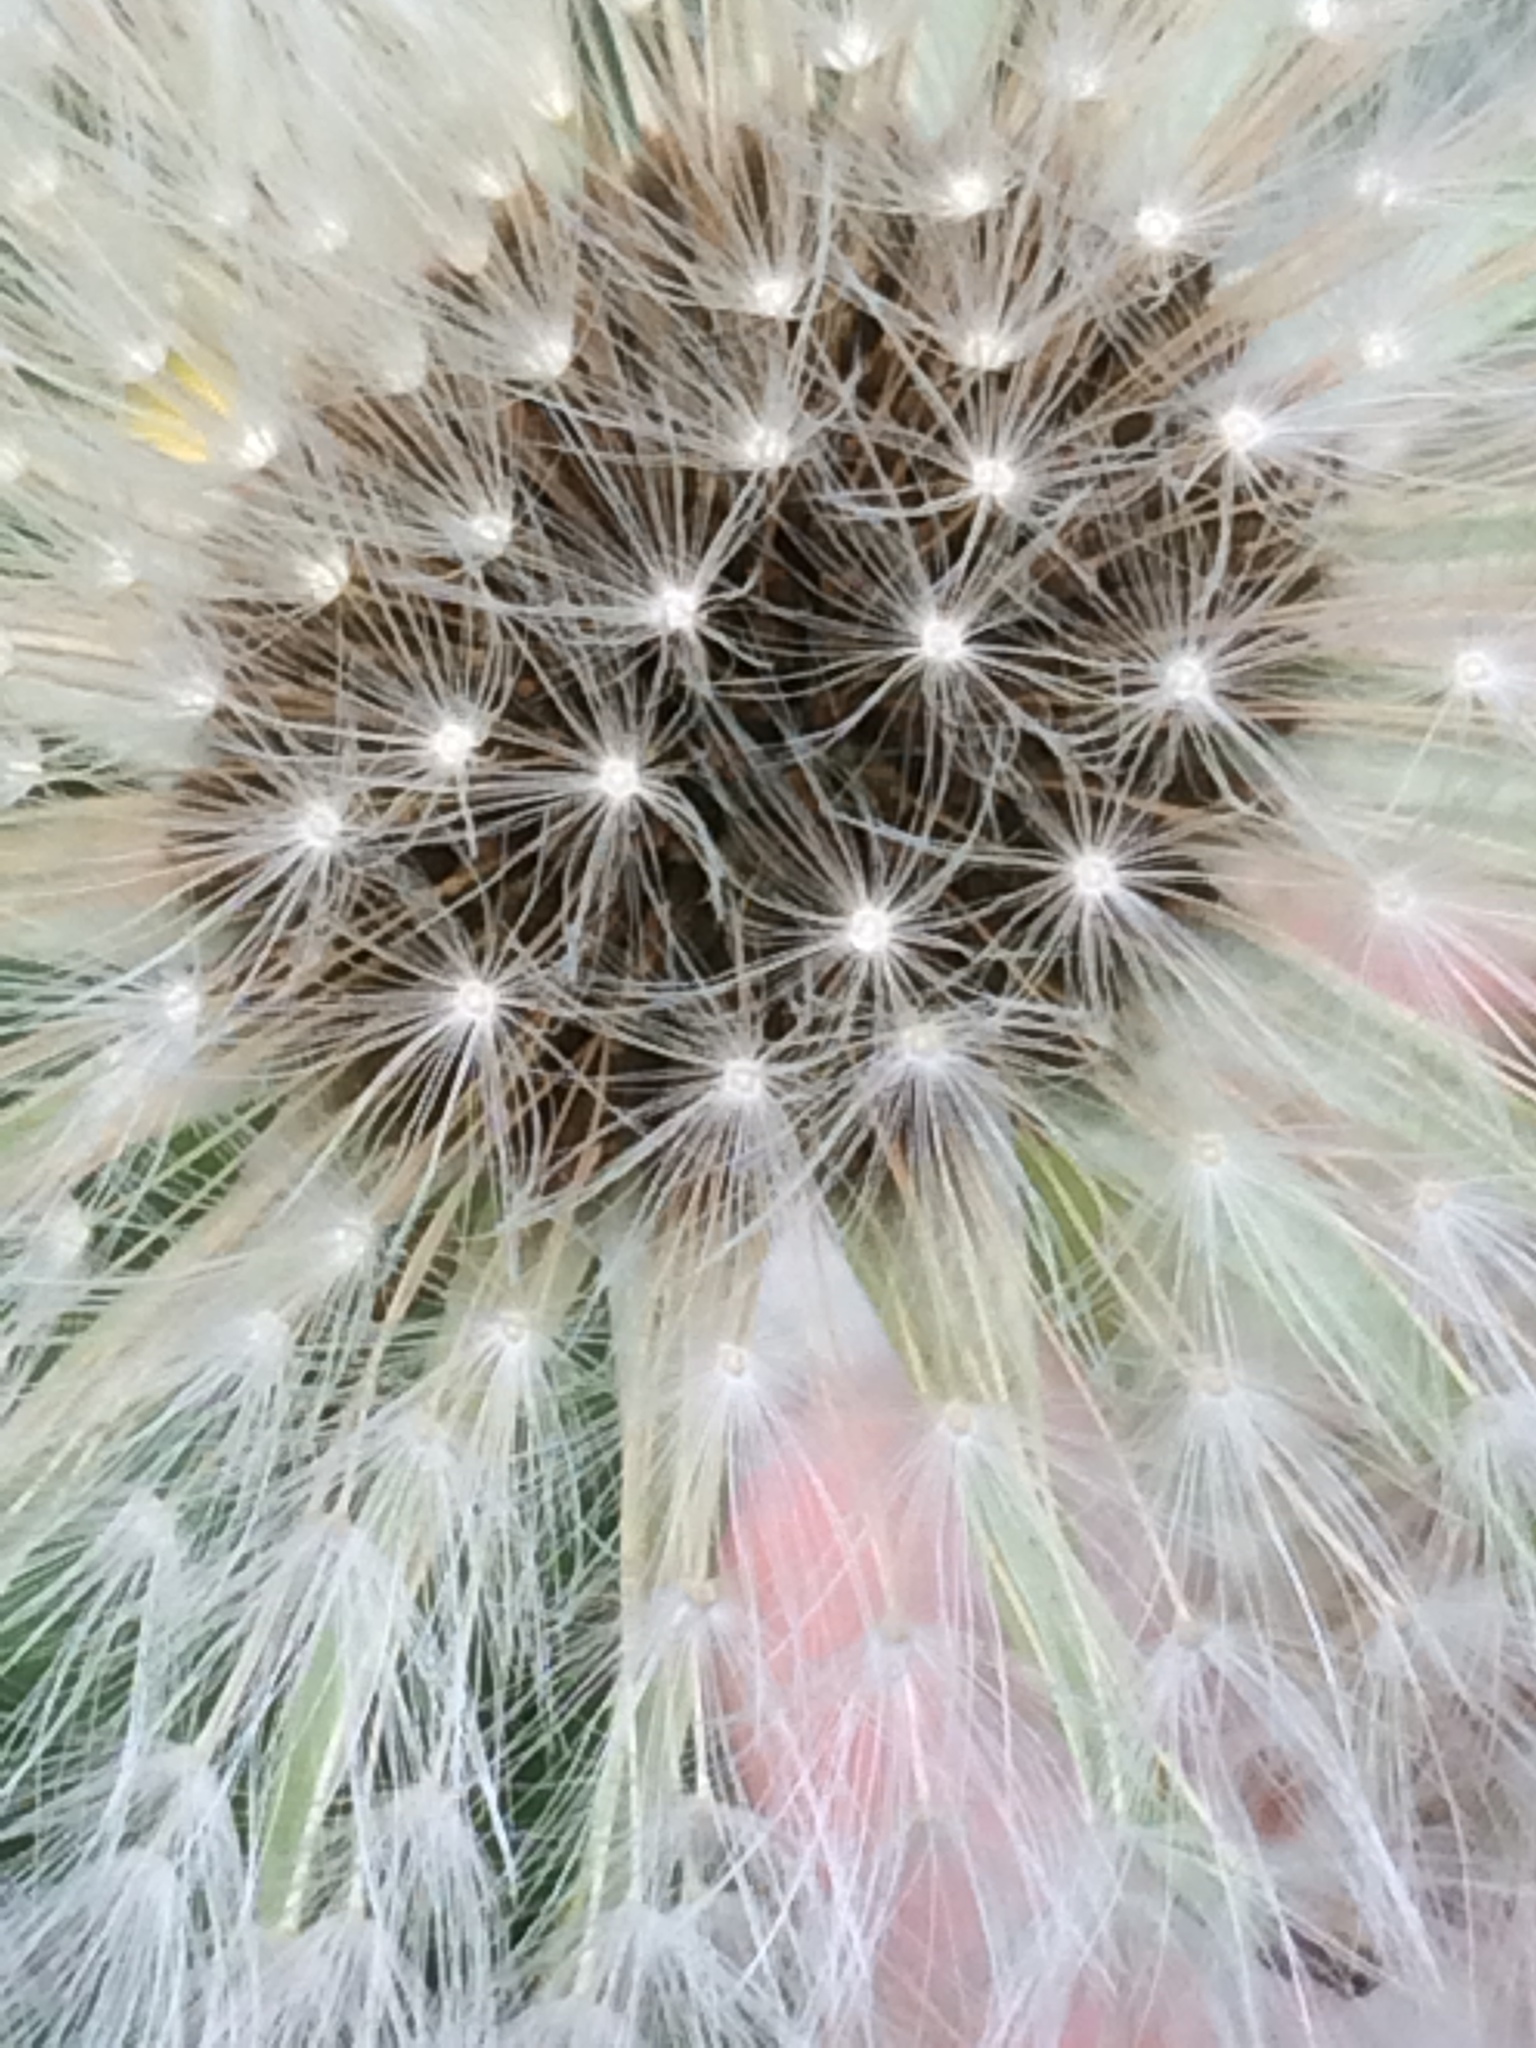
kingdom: Plantae
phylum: Tracheophyta
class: Magnoliopsida
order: Asterales
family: Asteraceae
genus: Taraxacum
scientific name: Taraxacum officinale
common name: Common dandelion
